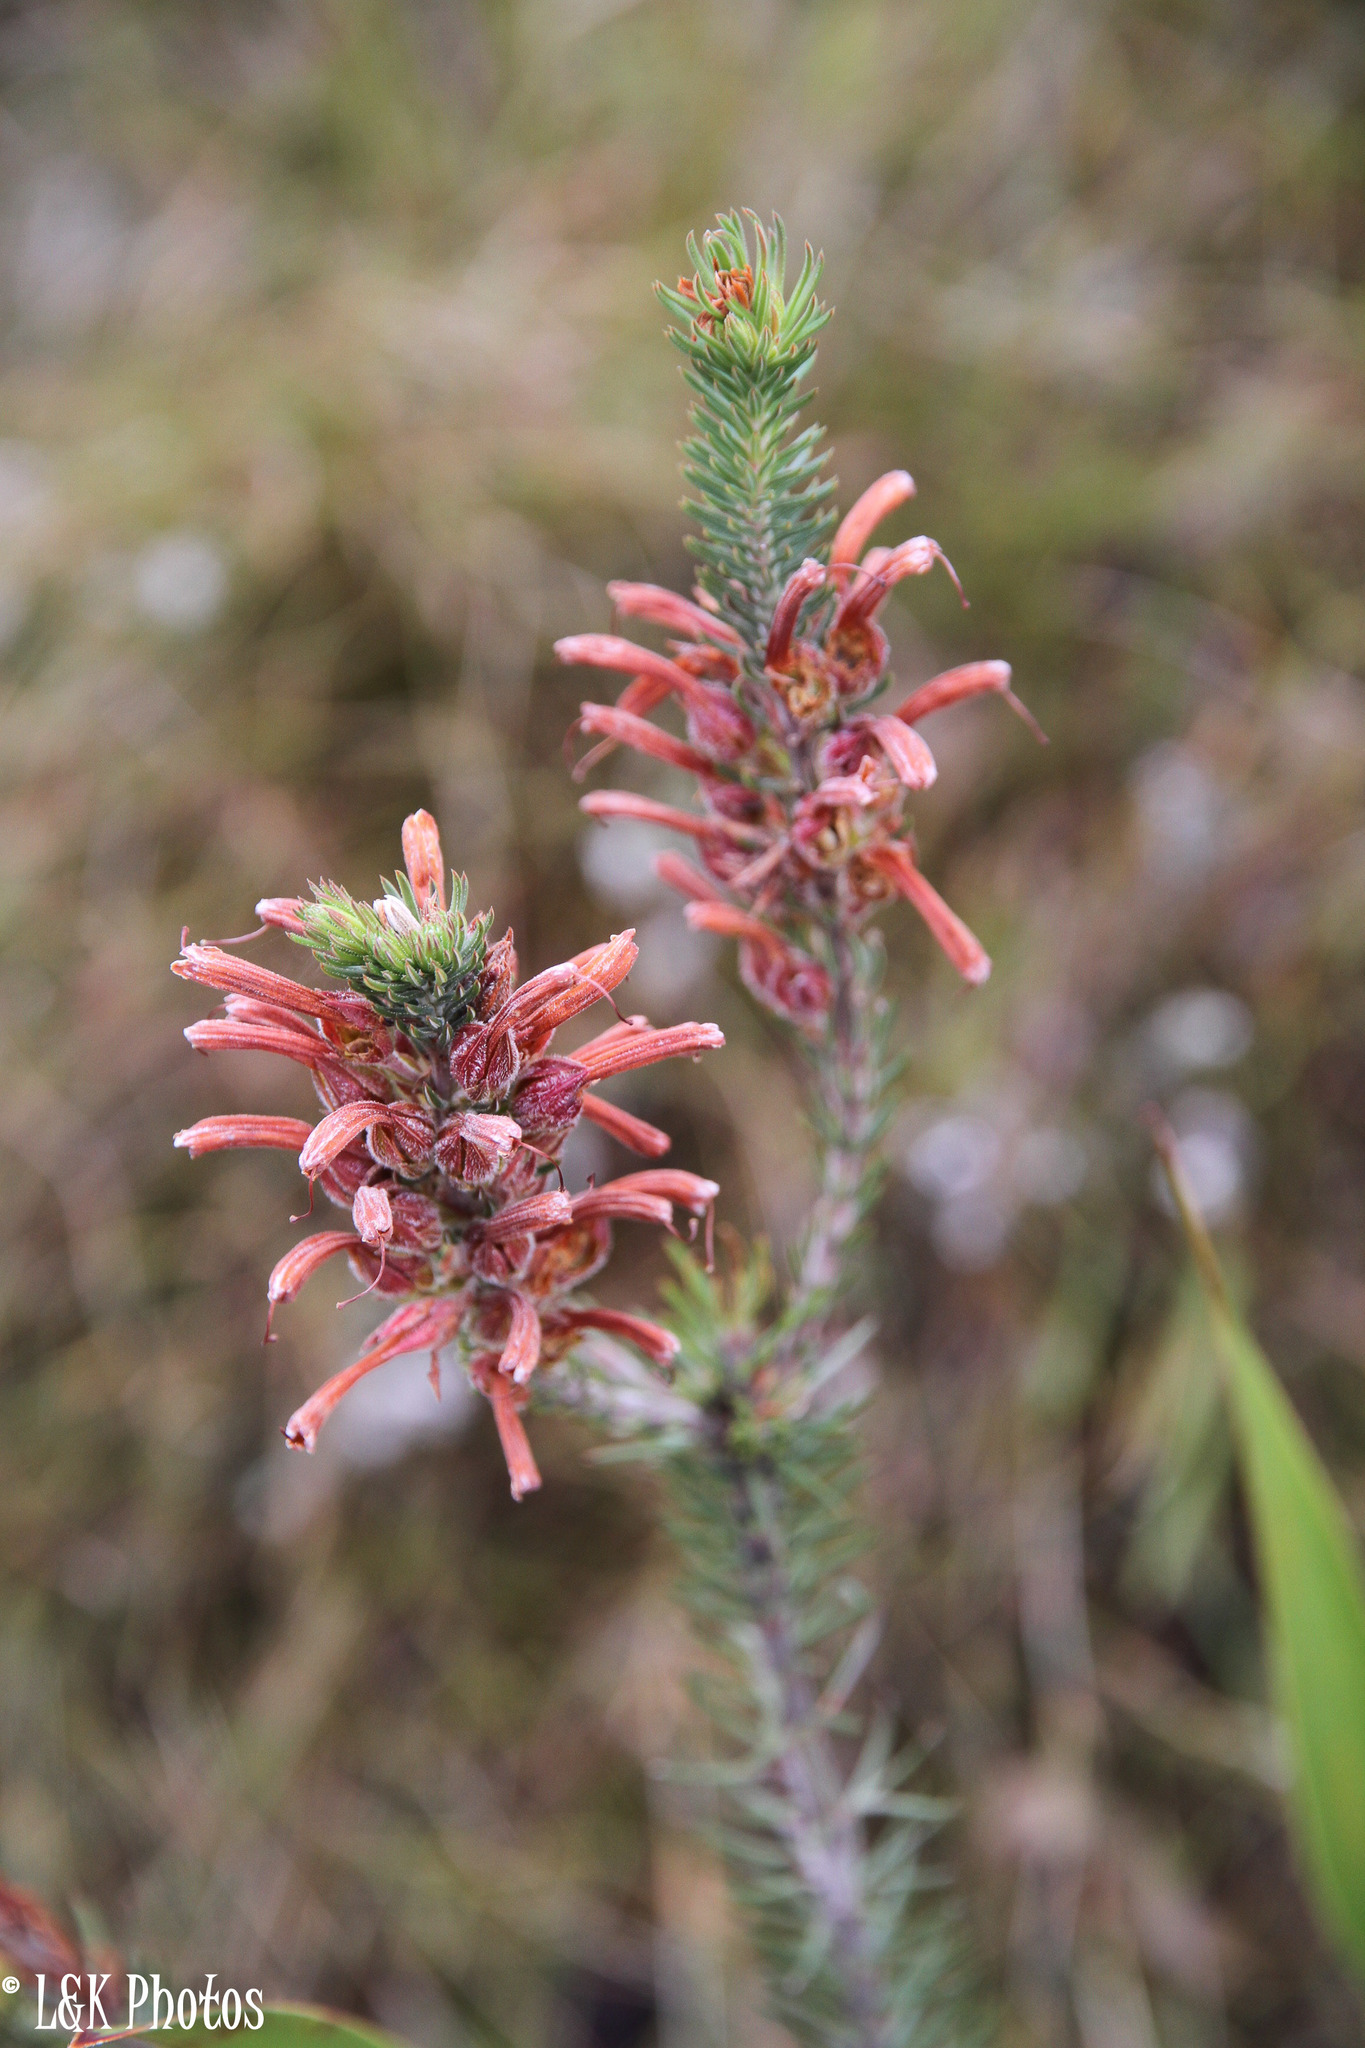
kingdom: Plantae
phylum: Tracheophyta
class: Magnoliopsida
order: Ericales
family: Ericaceae
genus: Erica
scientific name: Erica abietina
